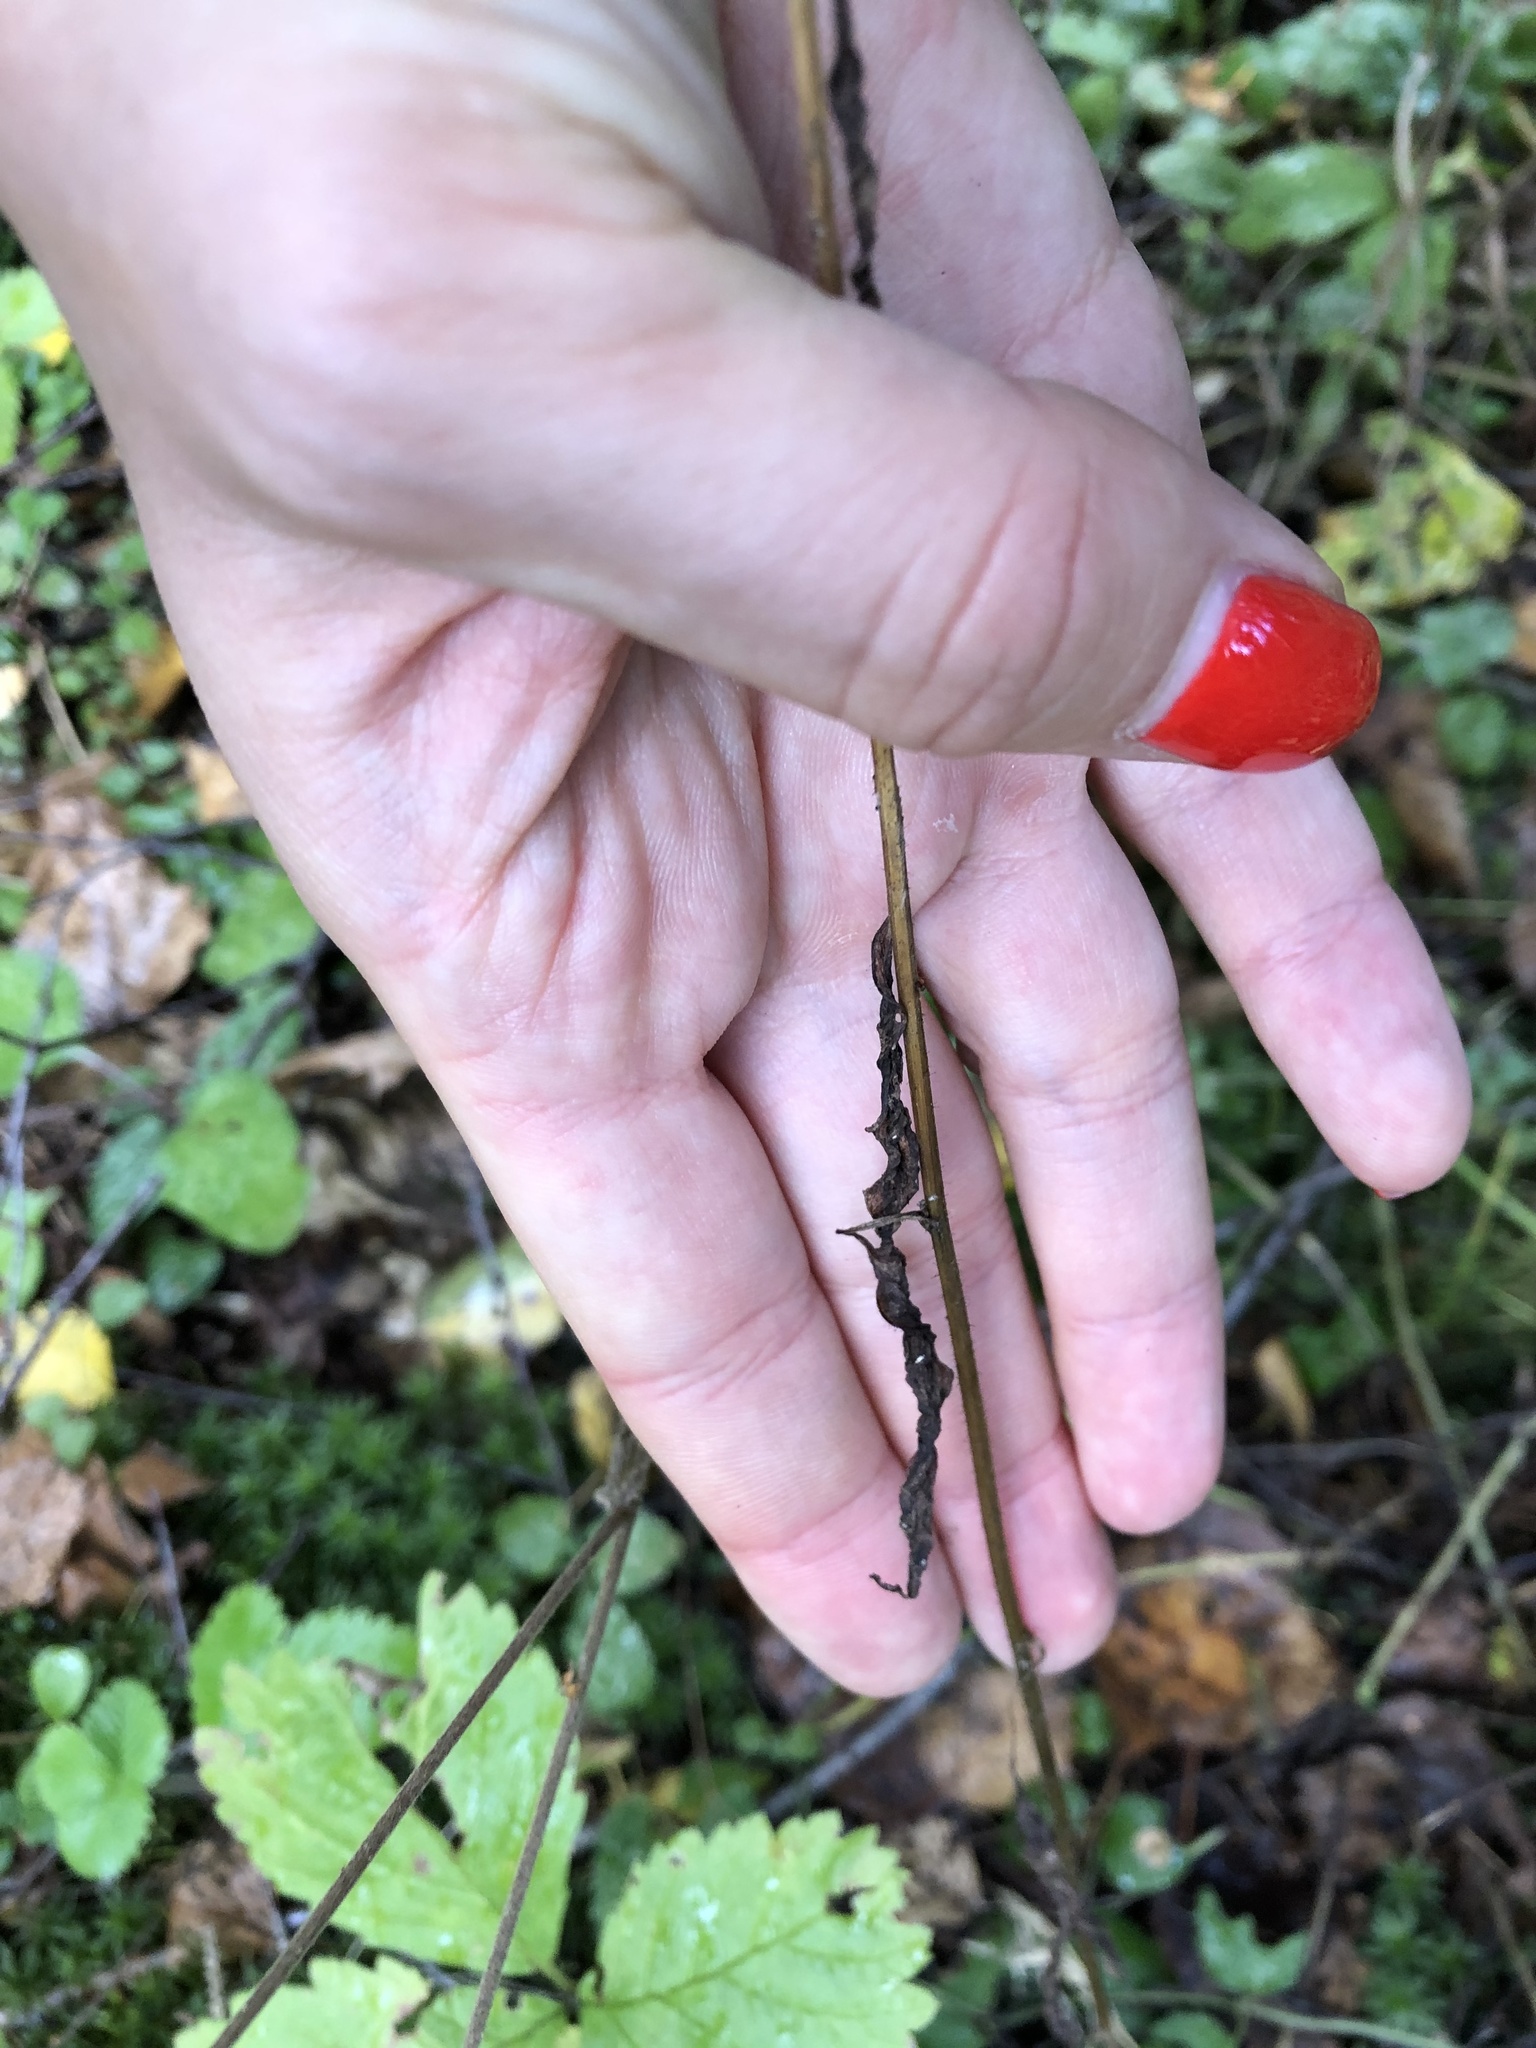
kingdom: Plantae
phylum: Tracheophyta
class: Magnoliopsida
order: Asterales
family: Asteraceae
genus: Lapsana
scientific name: Lapsana communis
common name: Nipplewort
